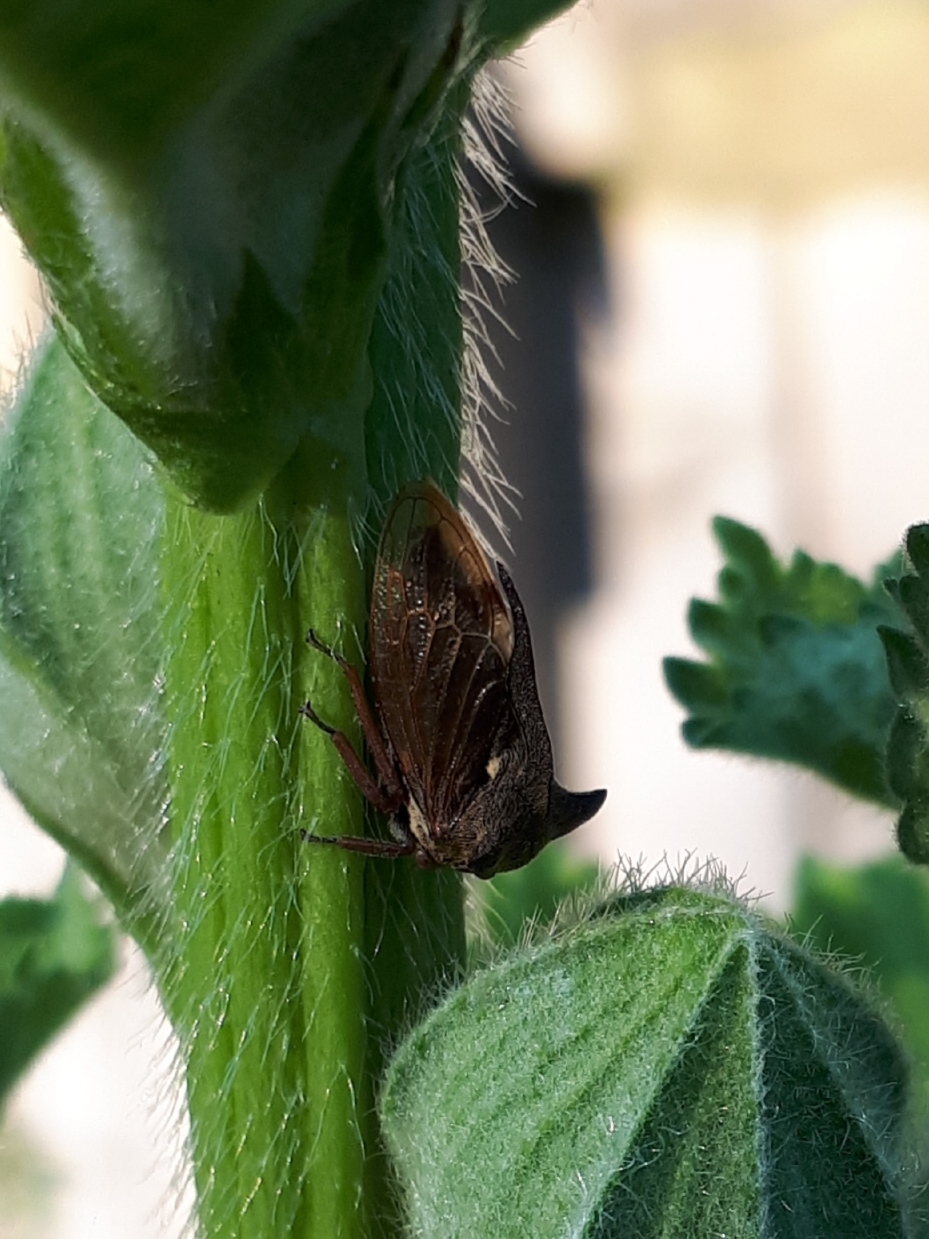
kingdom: Animalia
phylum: Arthropoda
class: Insecta
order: Hemiptera
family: Membracidae
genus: Centrotus
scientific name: Centrotus cornuta
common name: Treehopper
